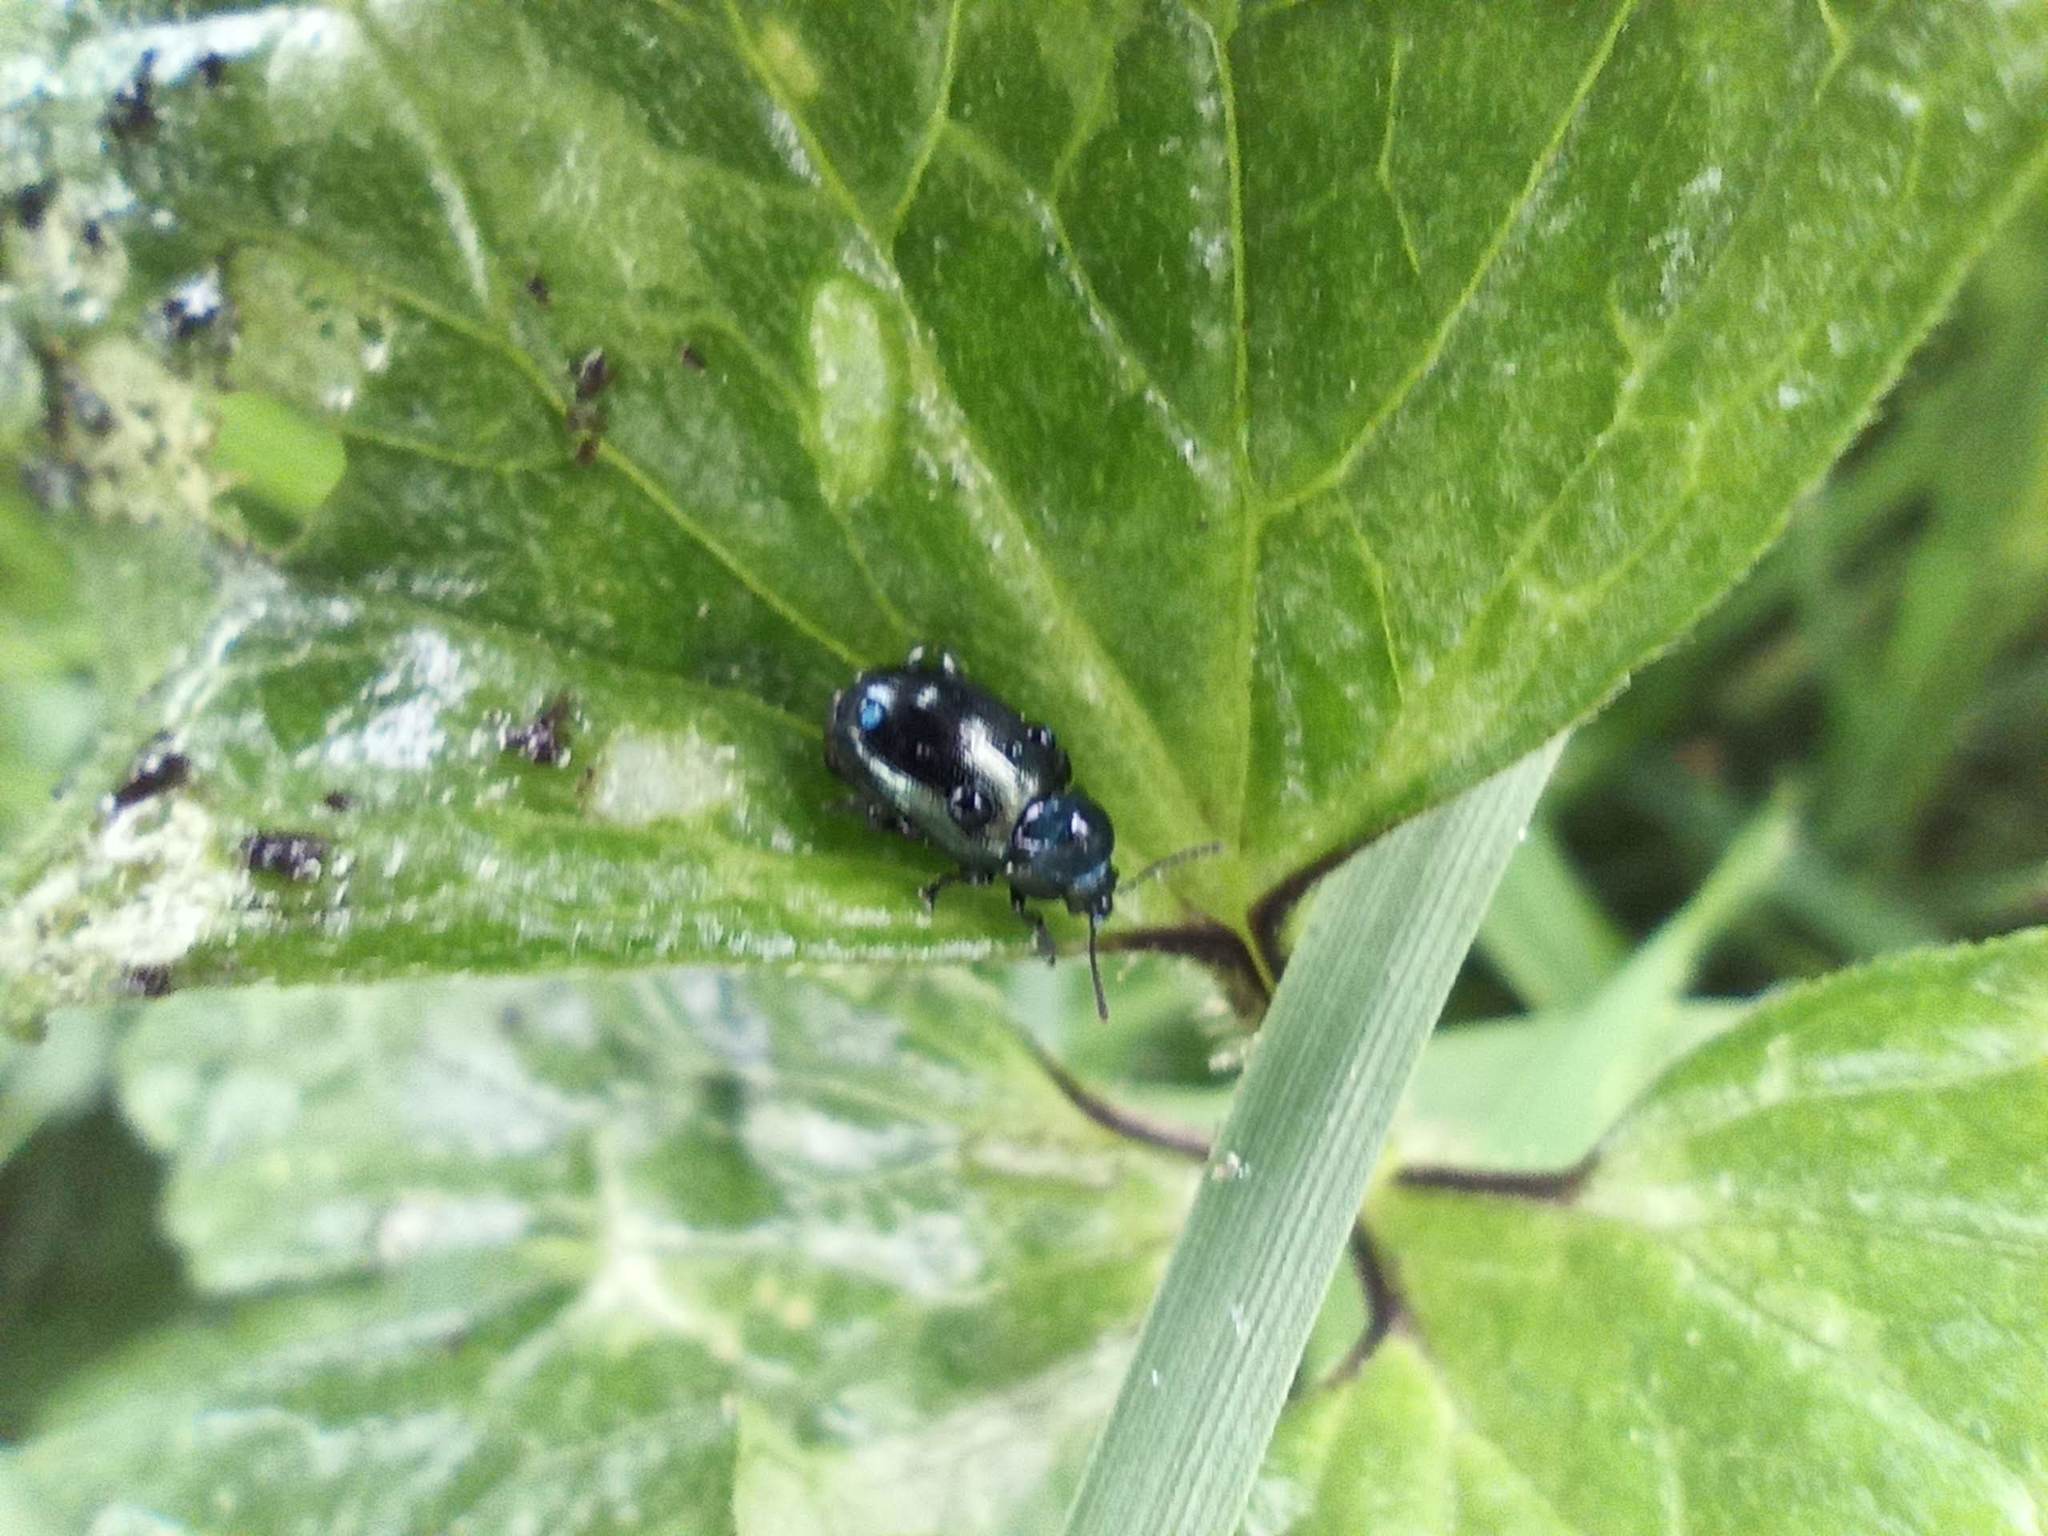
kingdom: Animalia
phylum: Arthropoda
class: Insecta
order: Coleoptera
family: Chrysomelidae
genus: Gastrophysa
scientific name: Gastrophysa janthina
